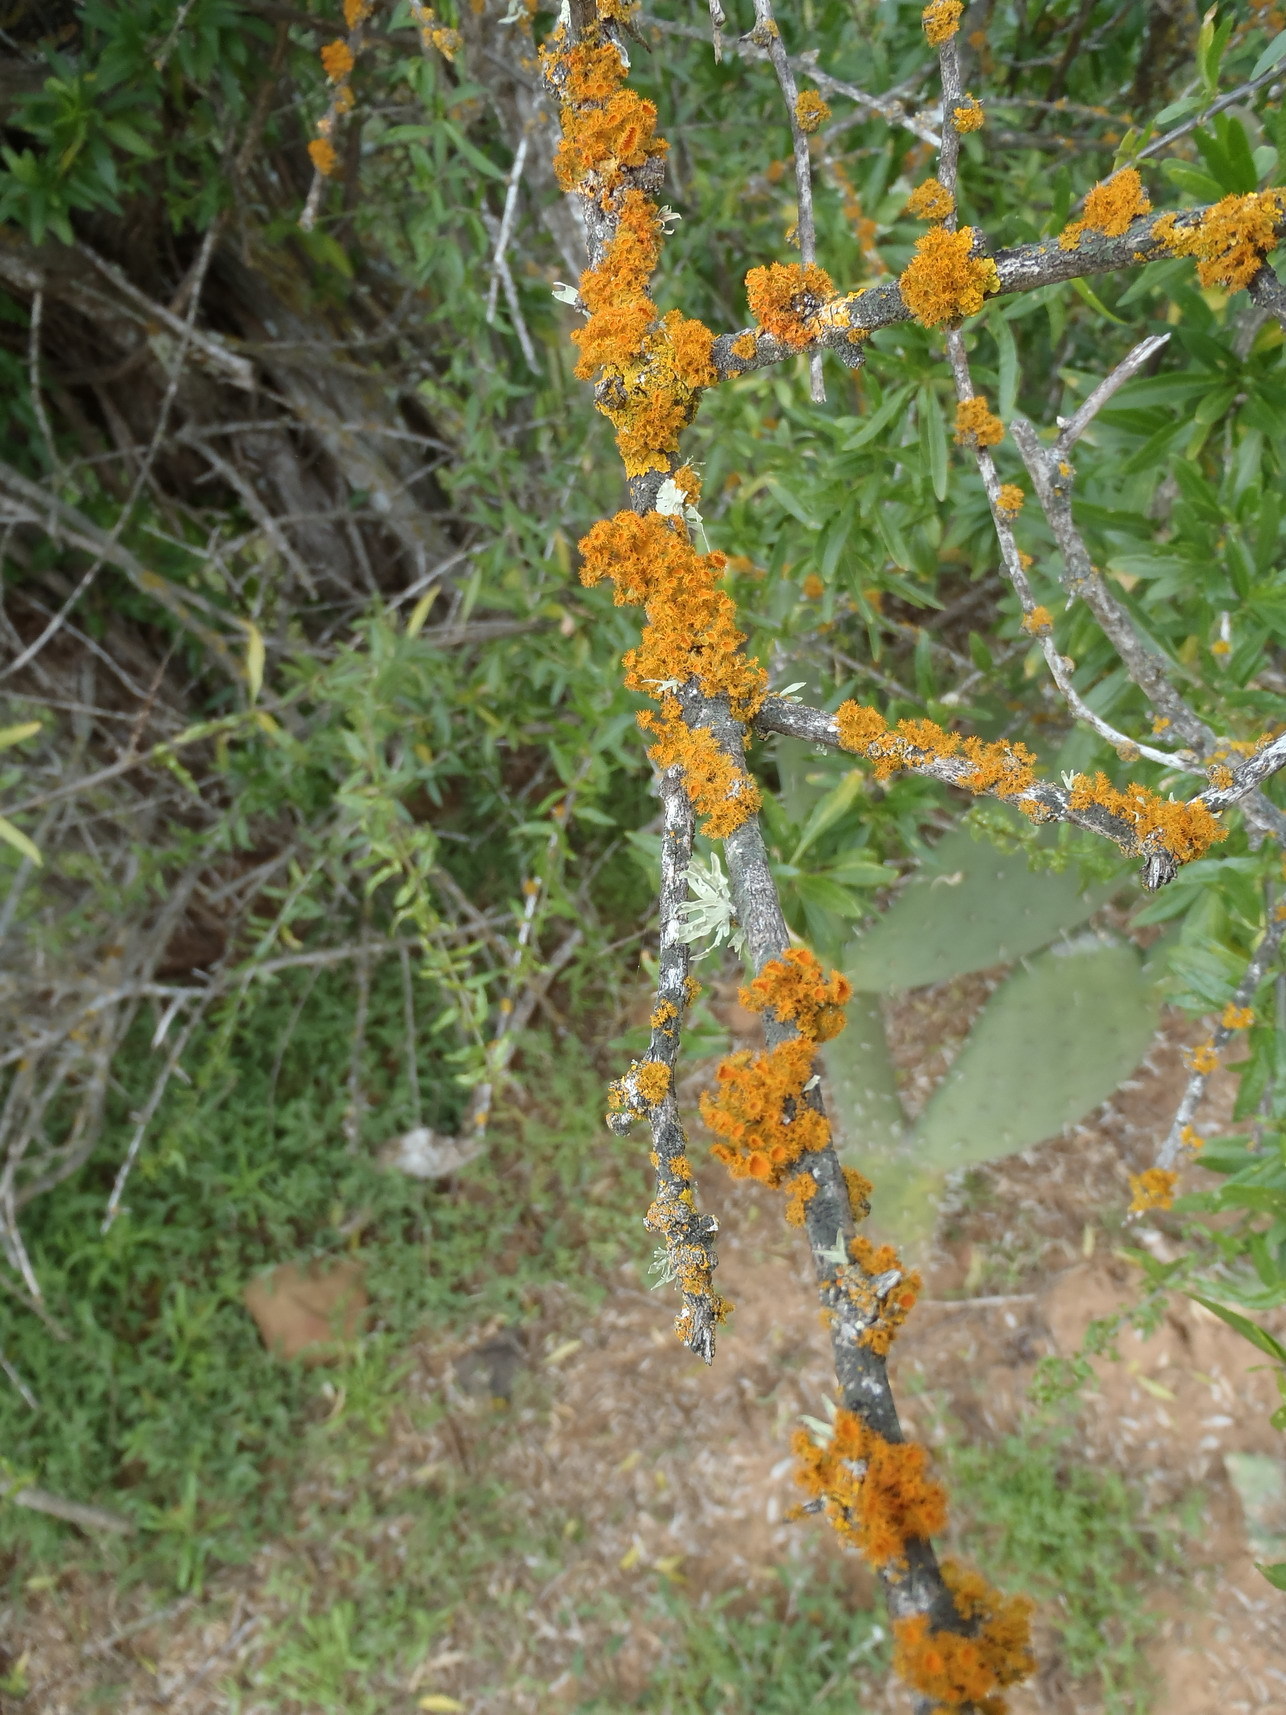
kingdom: Fungi
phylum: Ascomycota
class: Lecanoromycetes
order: Teloschistales
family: Teloschistaceae
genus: Niorma
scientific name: Niorma chrysophthalma
